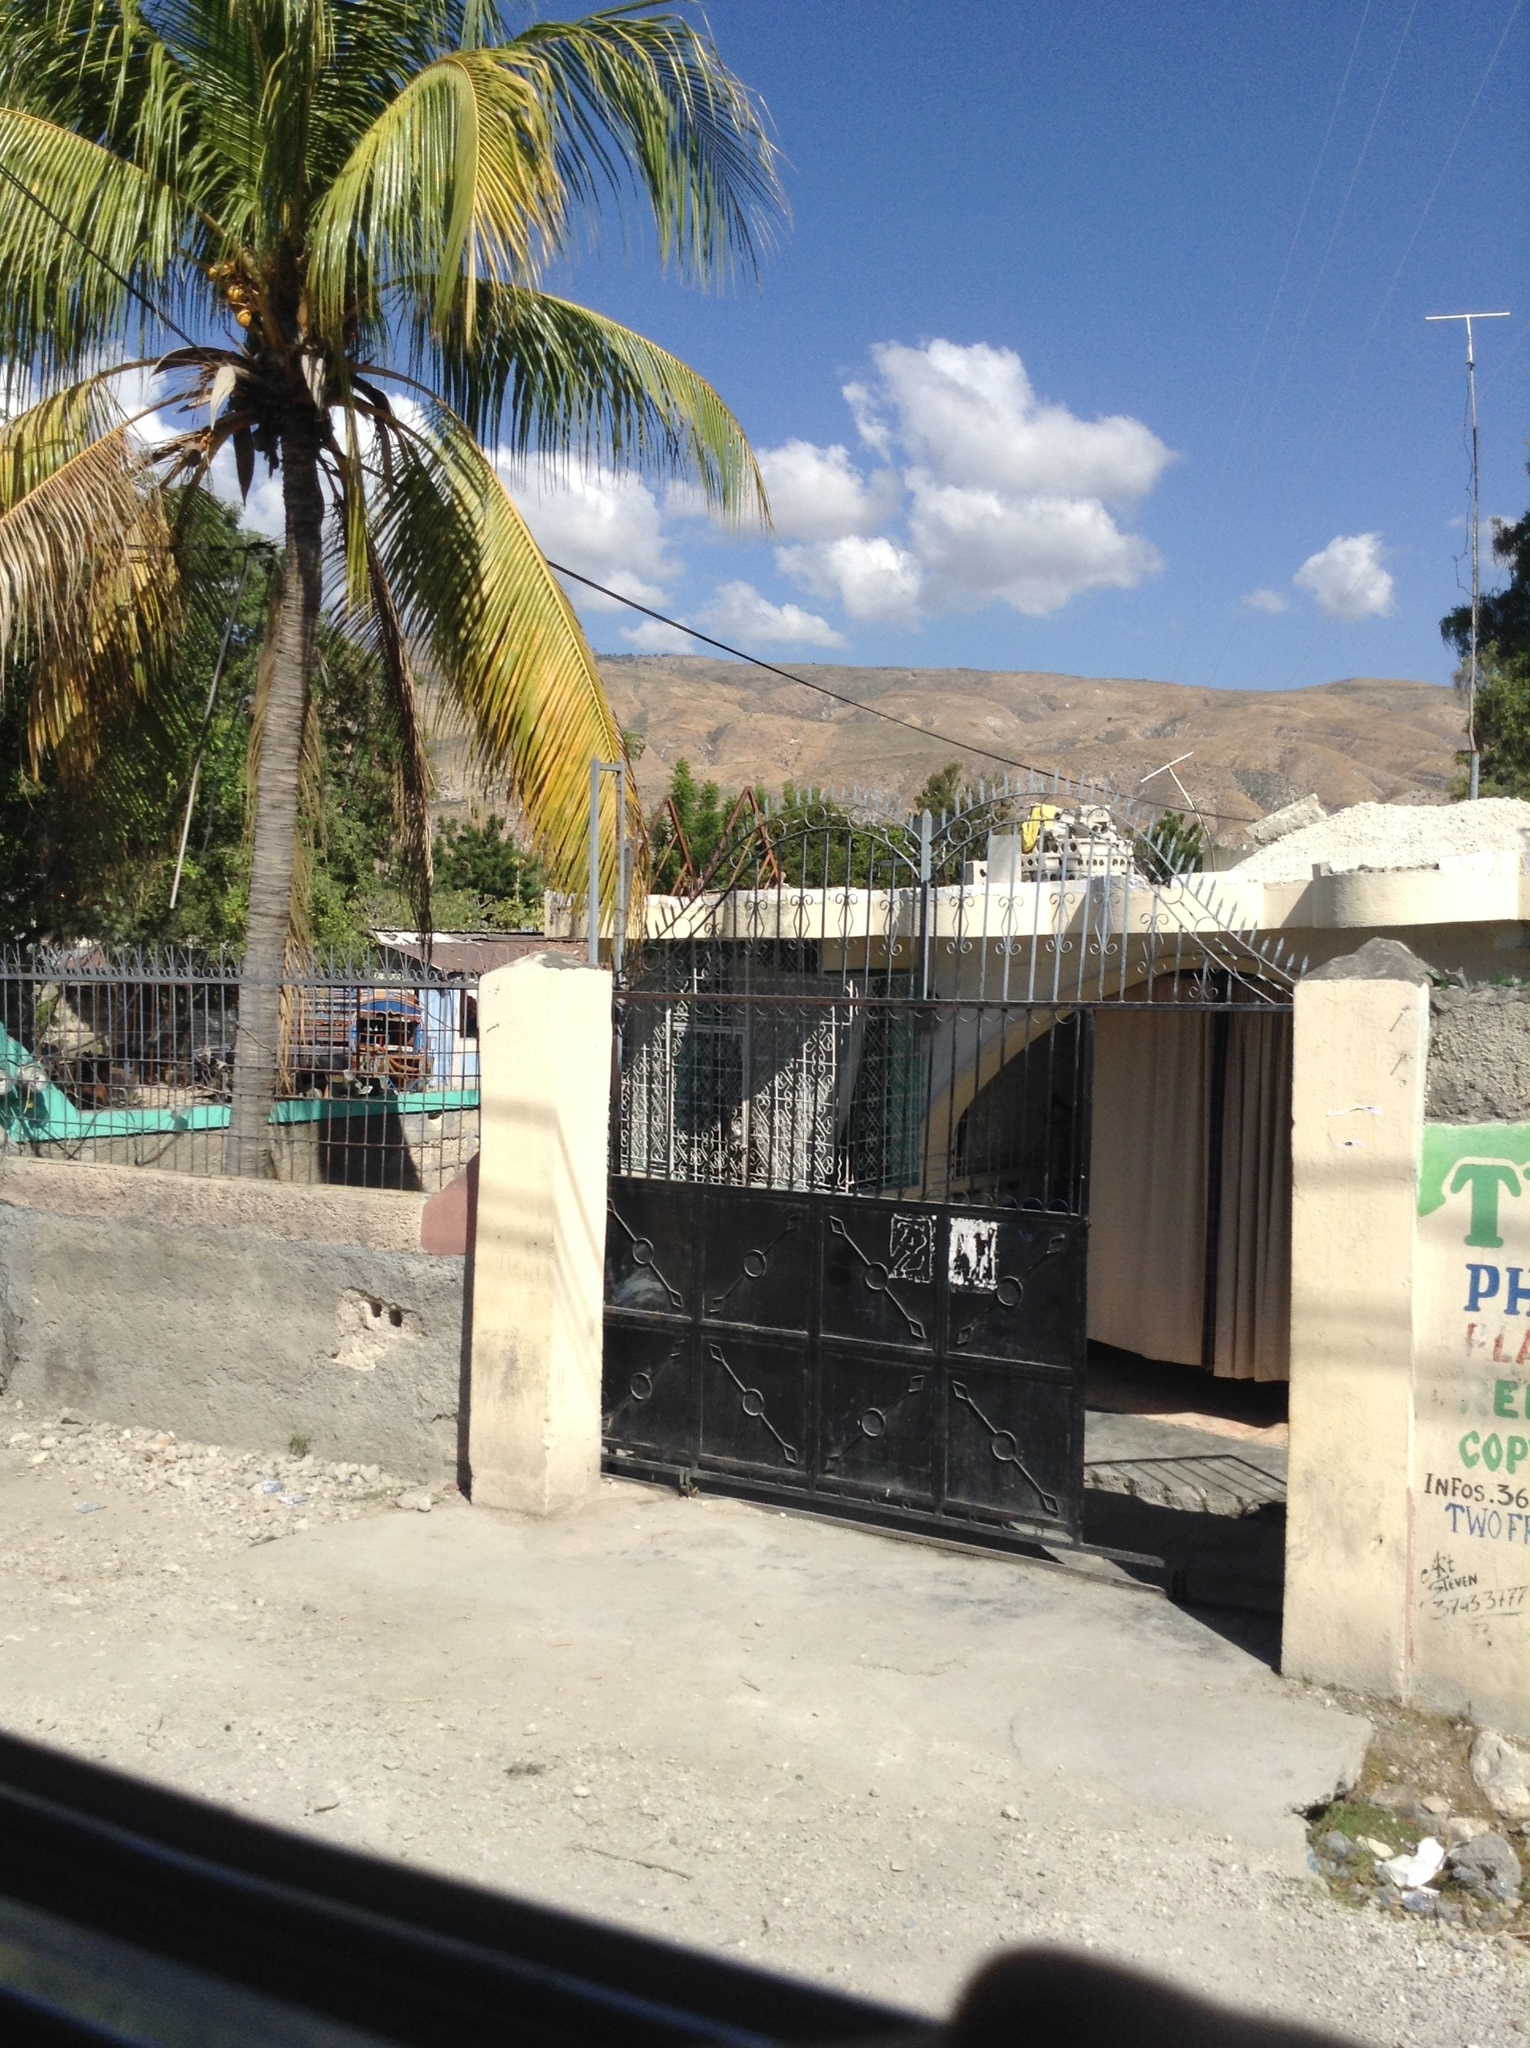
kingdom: Plantae
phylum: Tracheophyta
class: Liliopsida
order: Arecales
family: Arecaceae
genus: Cocos
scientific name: Cocos nucifera
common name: Coconut palm
